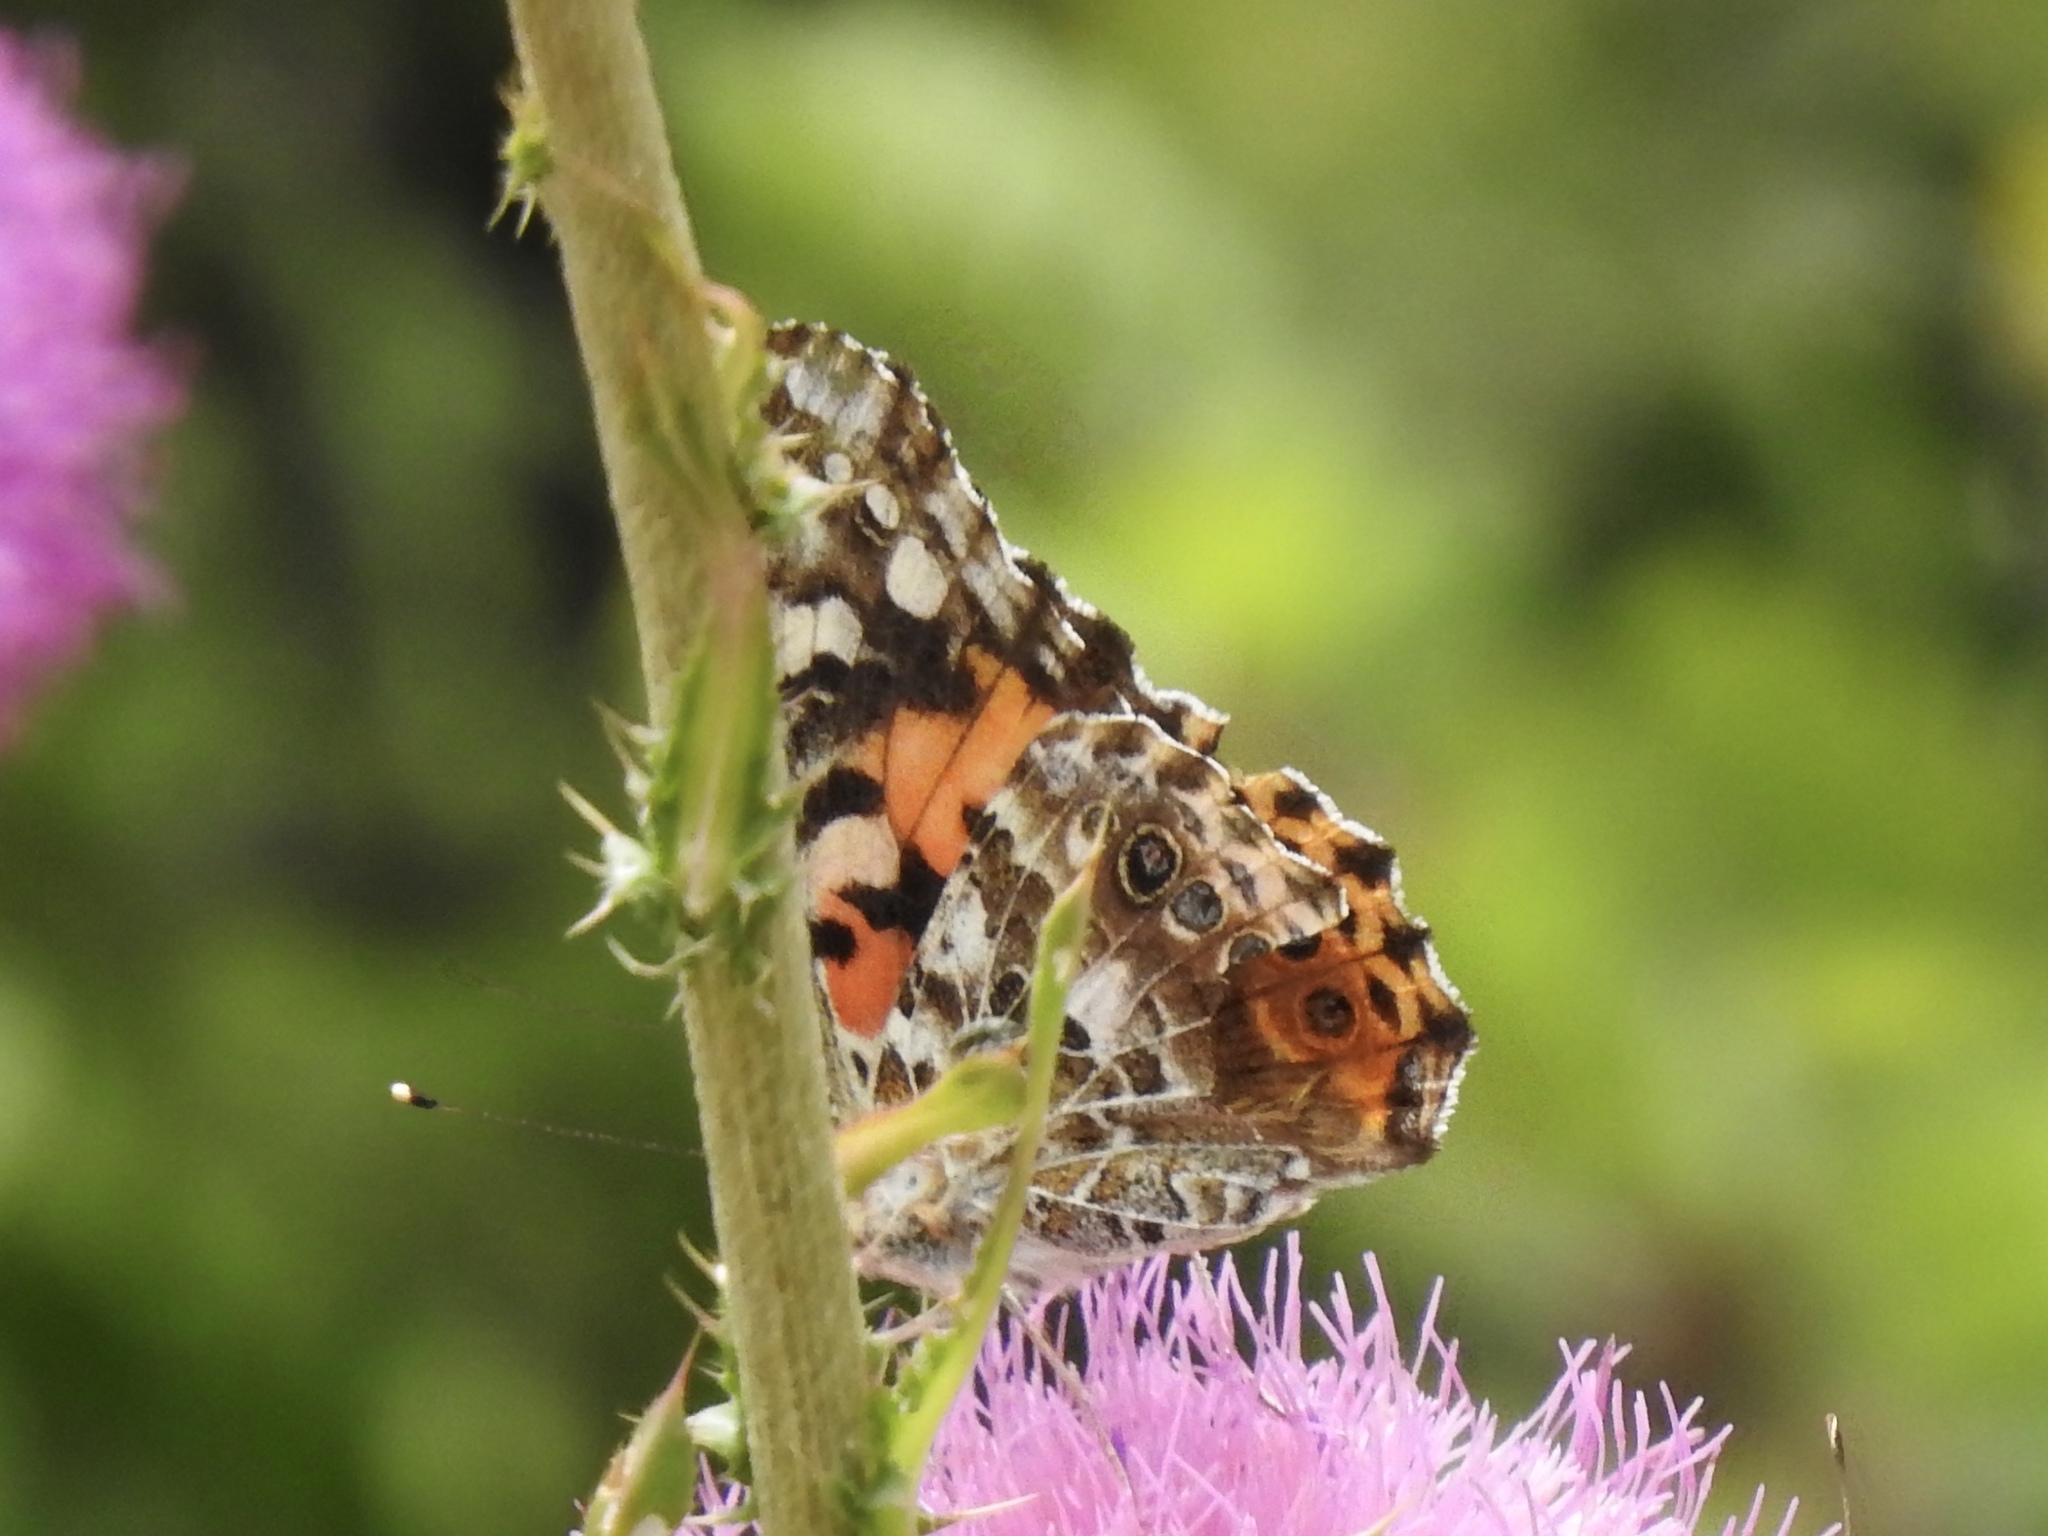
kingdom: Animalia
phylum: Arthropoda
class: Insecta
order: Lepidoptera
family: Nymphalidae
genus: Vanessa
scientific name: Vanessa cardui
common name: Painted lady
